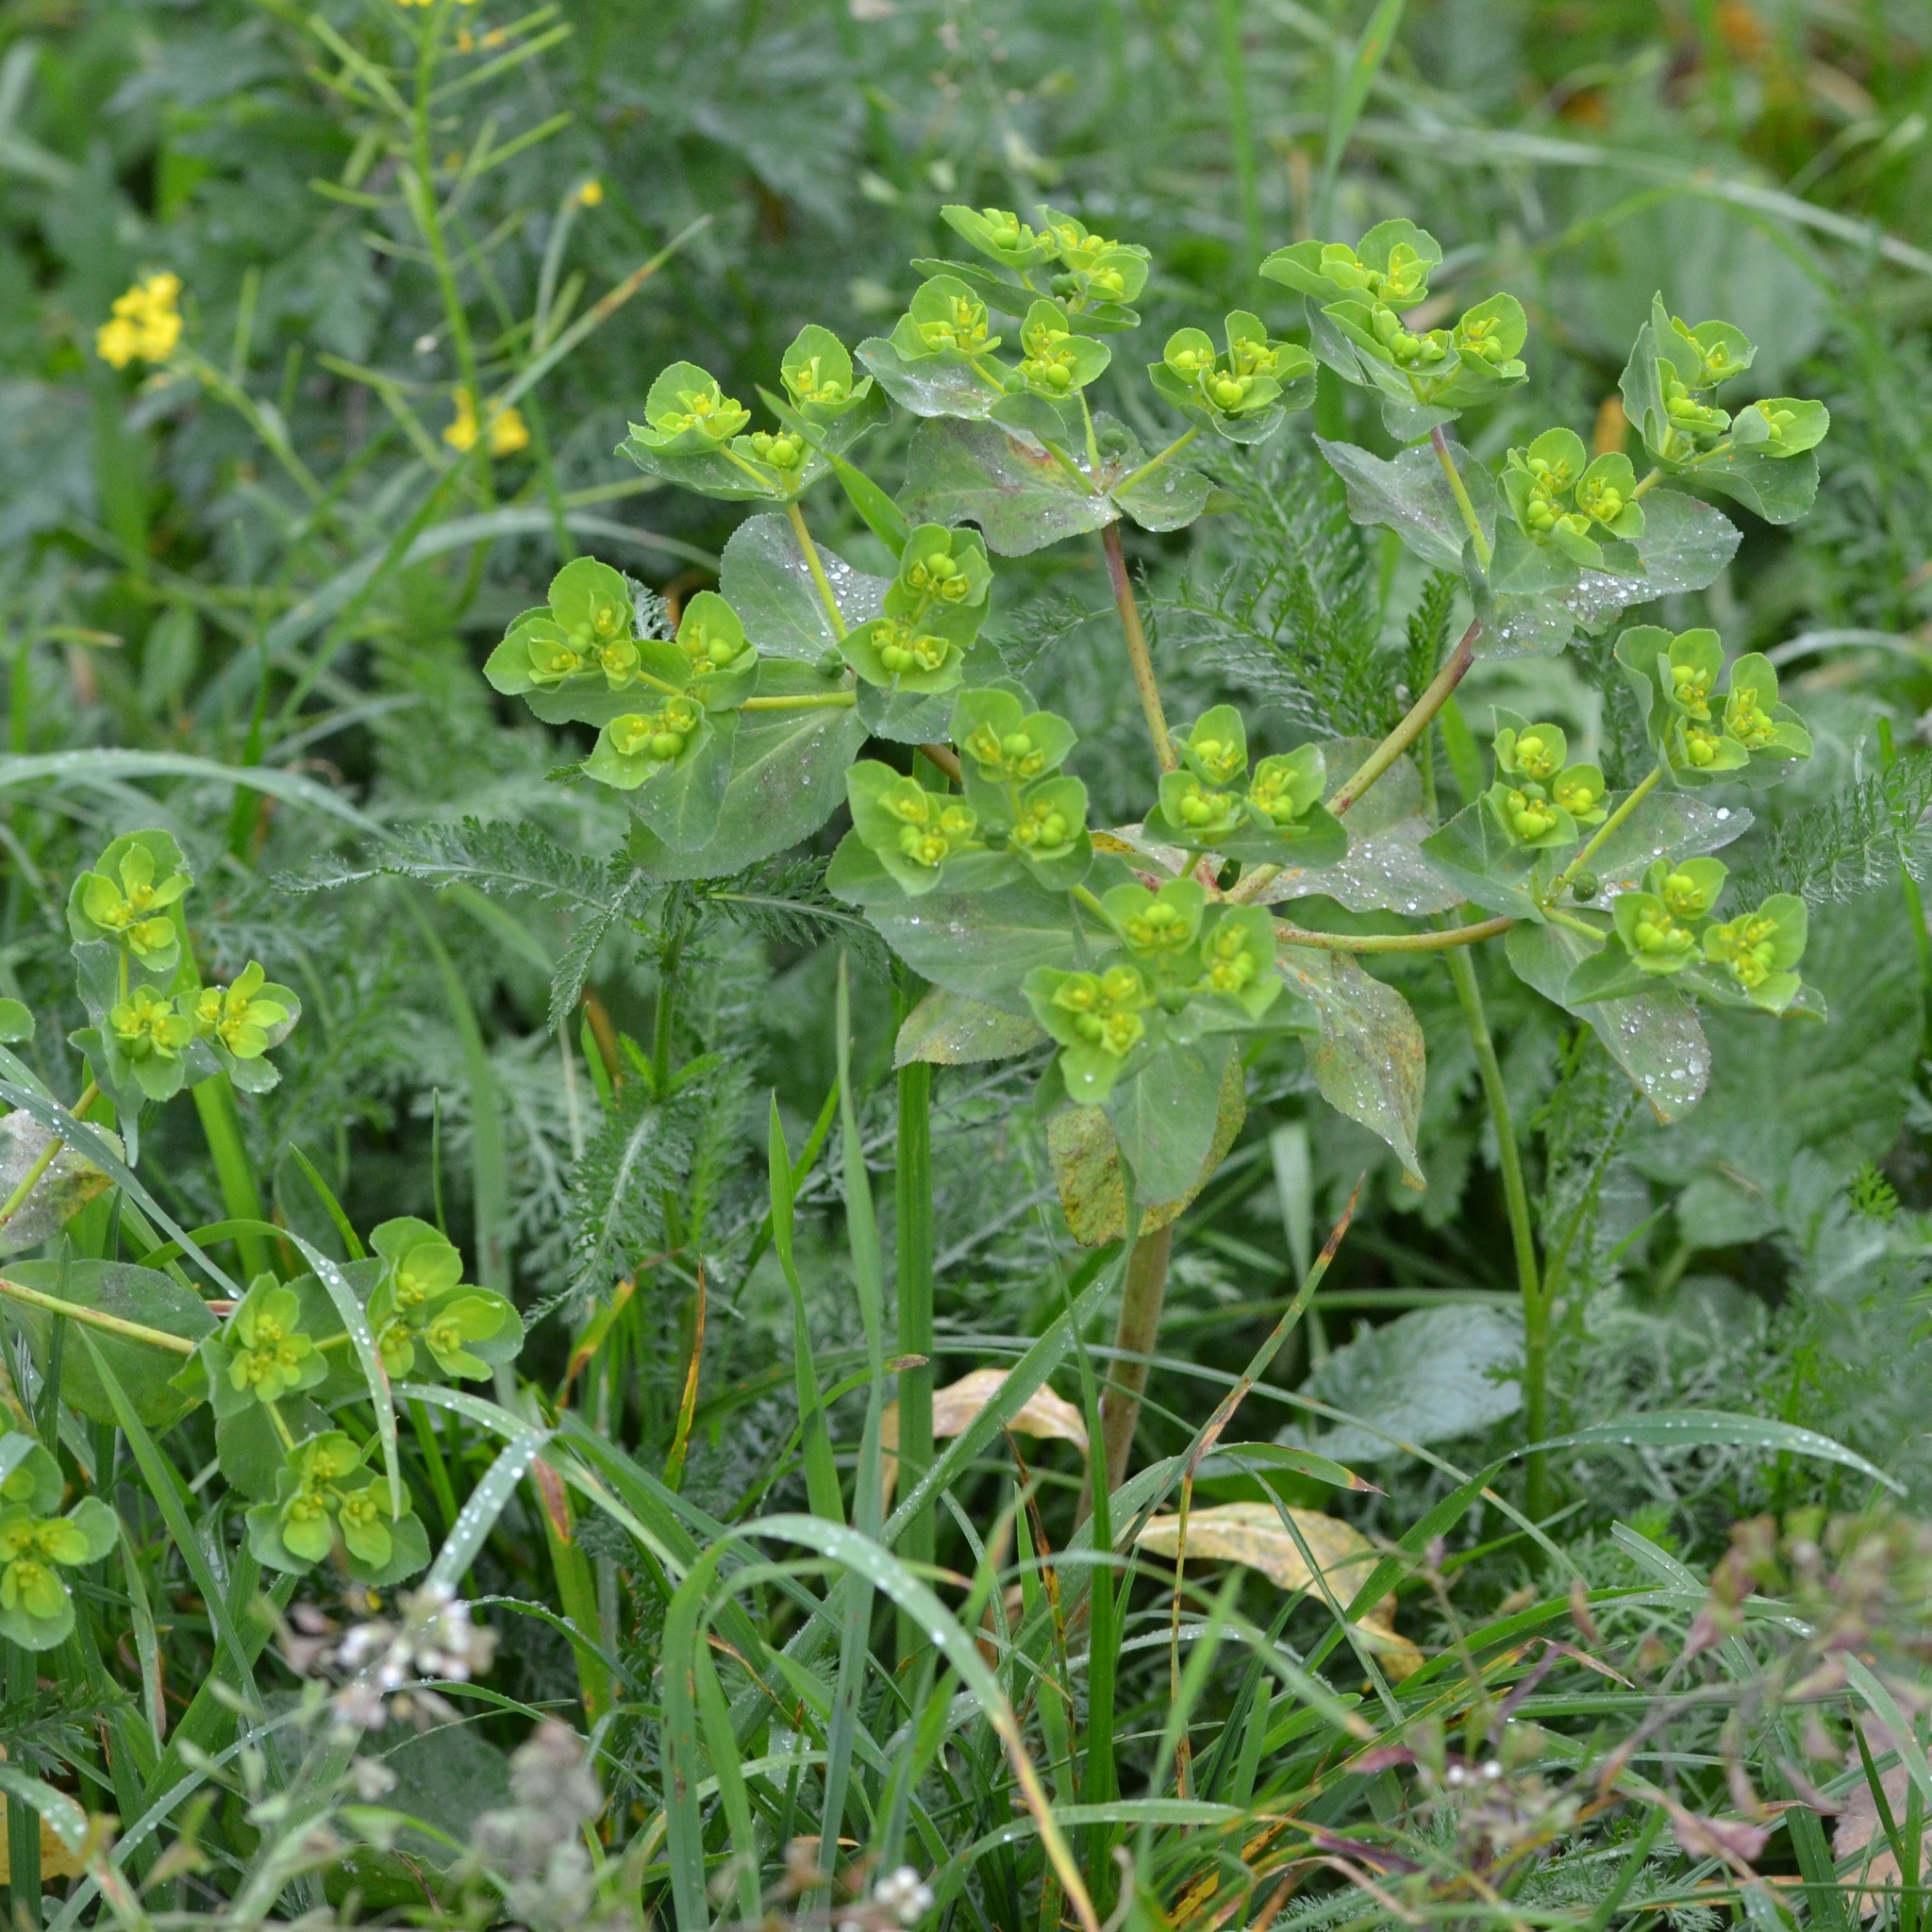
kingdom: Plantae
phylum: Tracheophyta
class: Magnoliopsida
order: Malpighiales
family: Euphorbiaceae
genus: Euphorbia
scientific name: Euphorbia helioscopia
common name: Sun spurge
